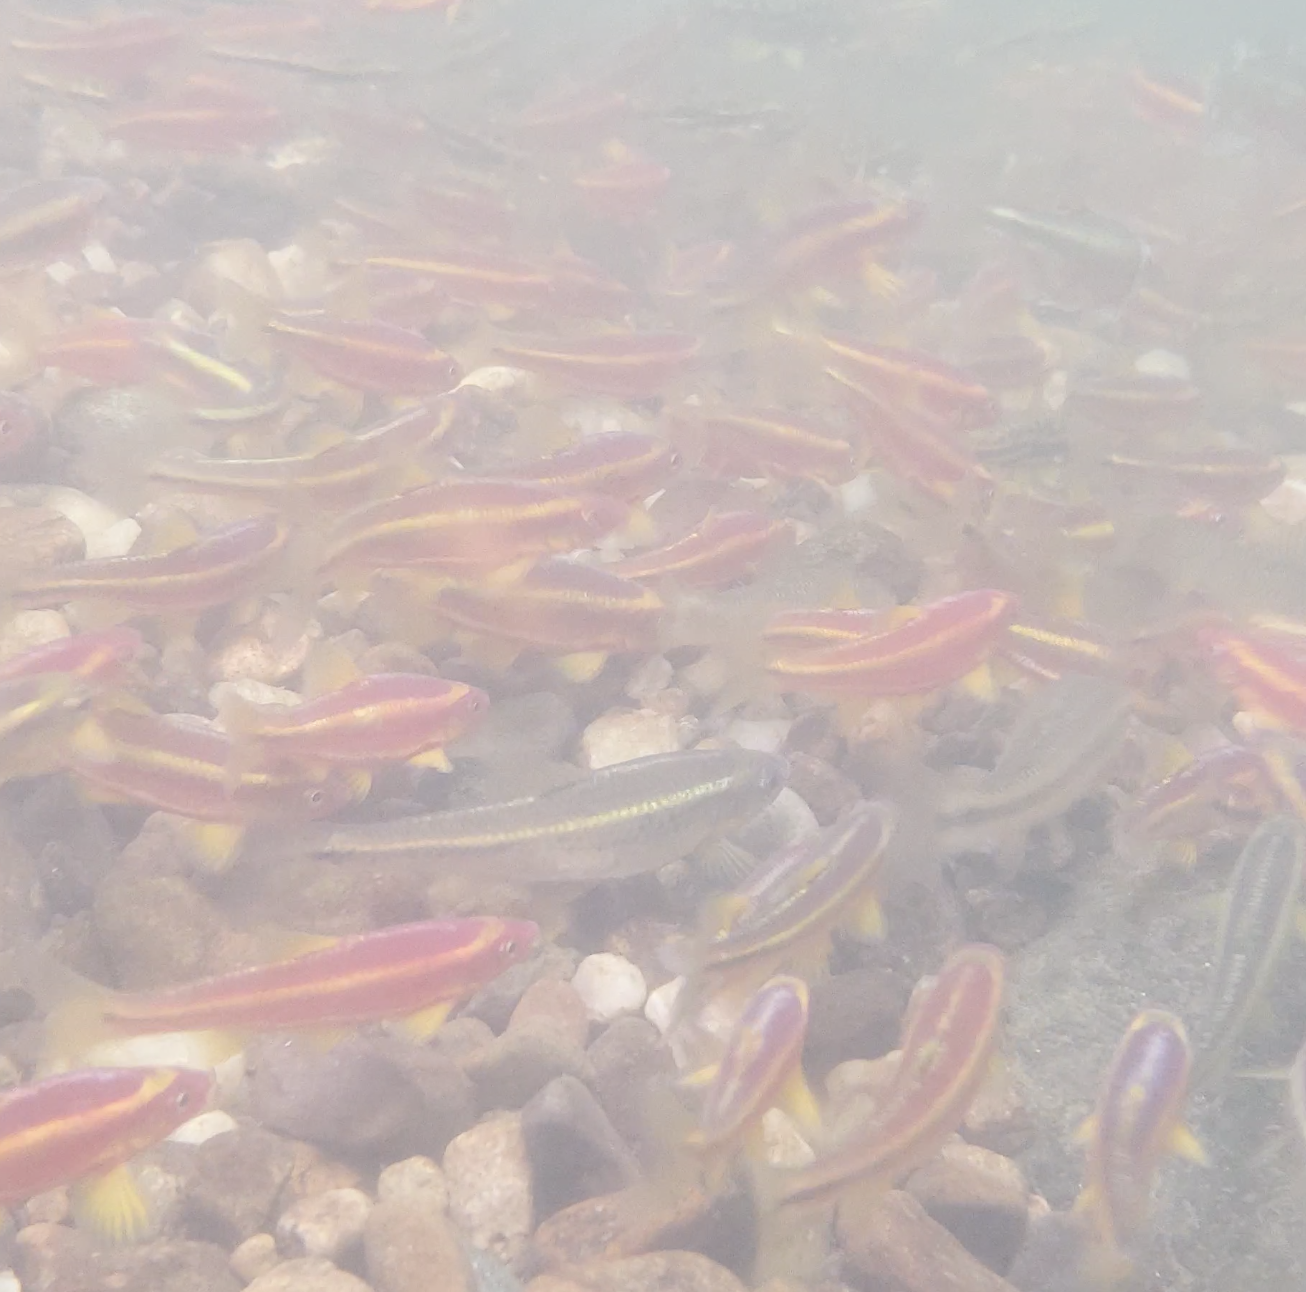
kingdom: Animalia
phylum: Chordata
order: Cypriniformes
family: Cyprinidae
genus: Notropis
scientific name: Notropis
